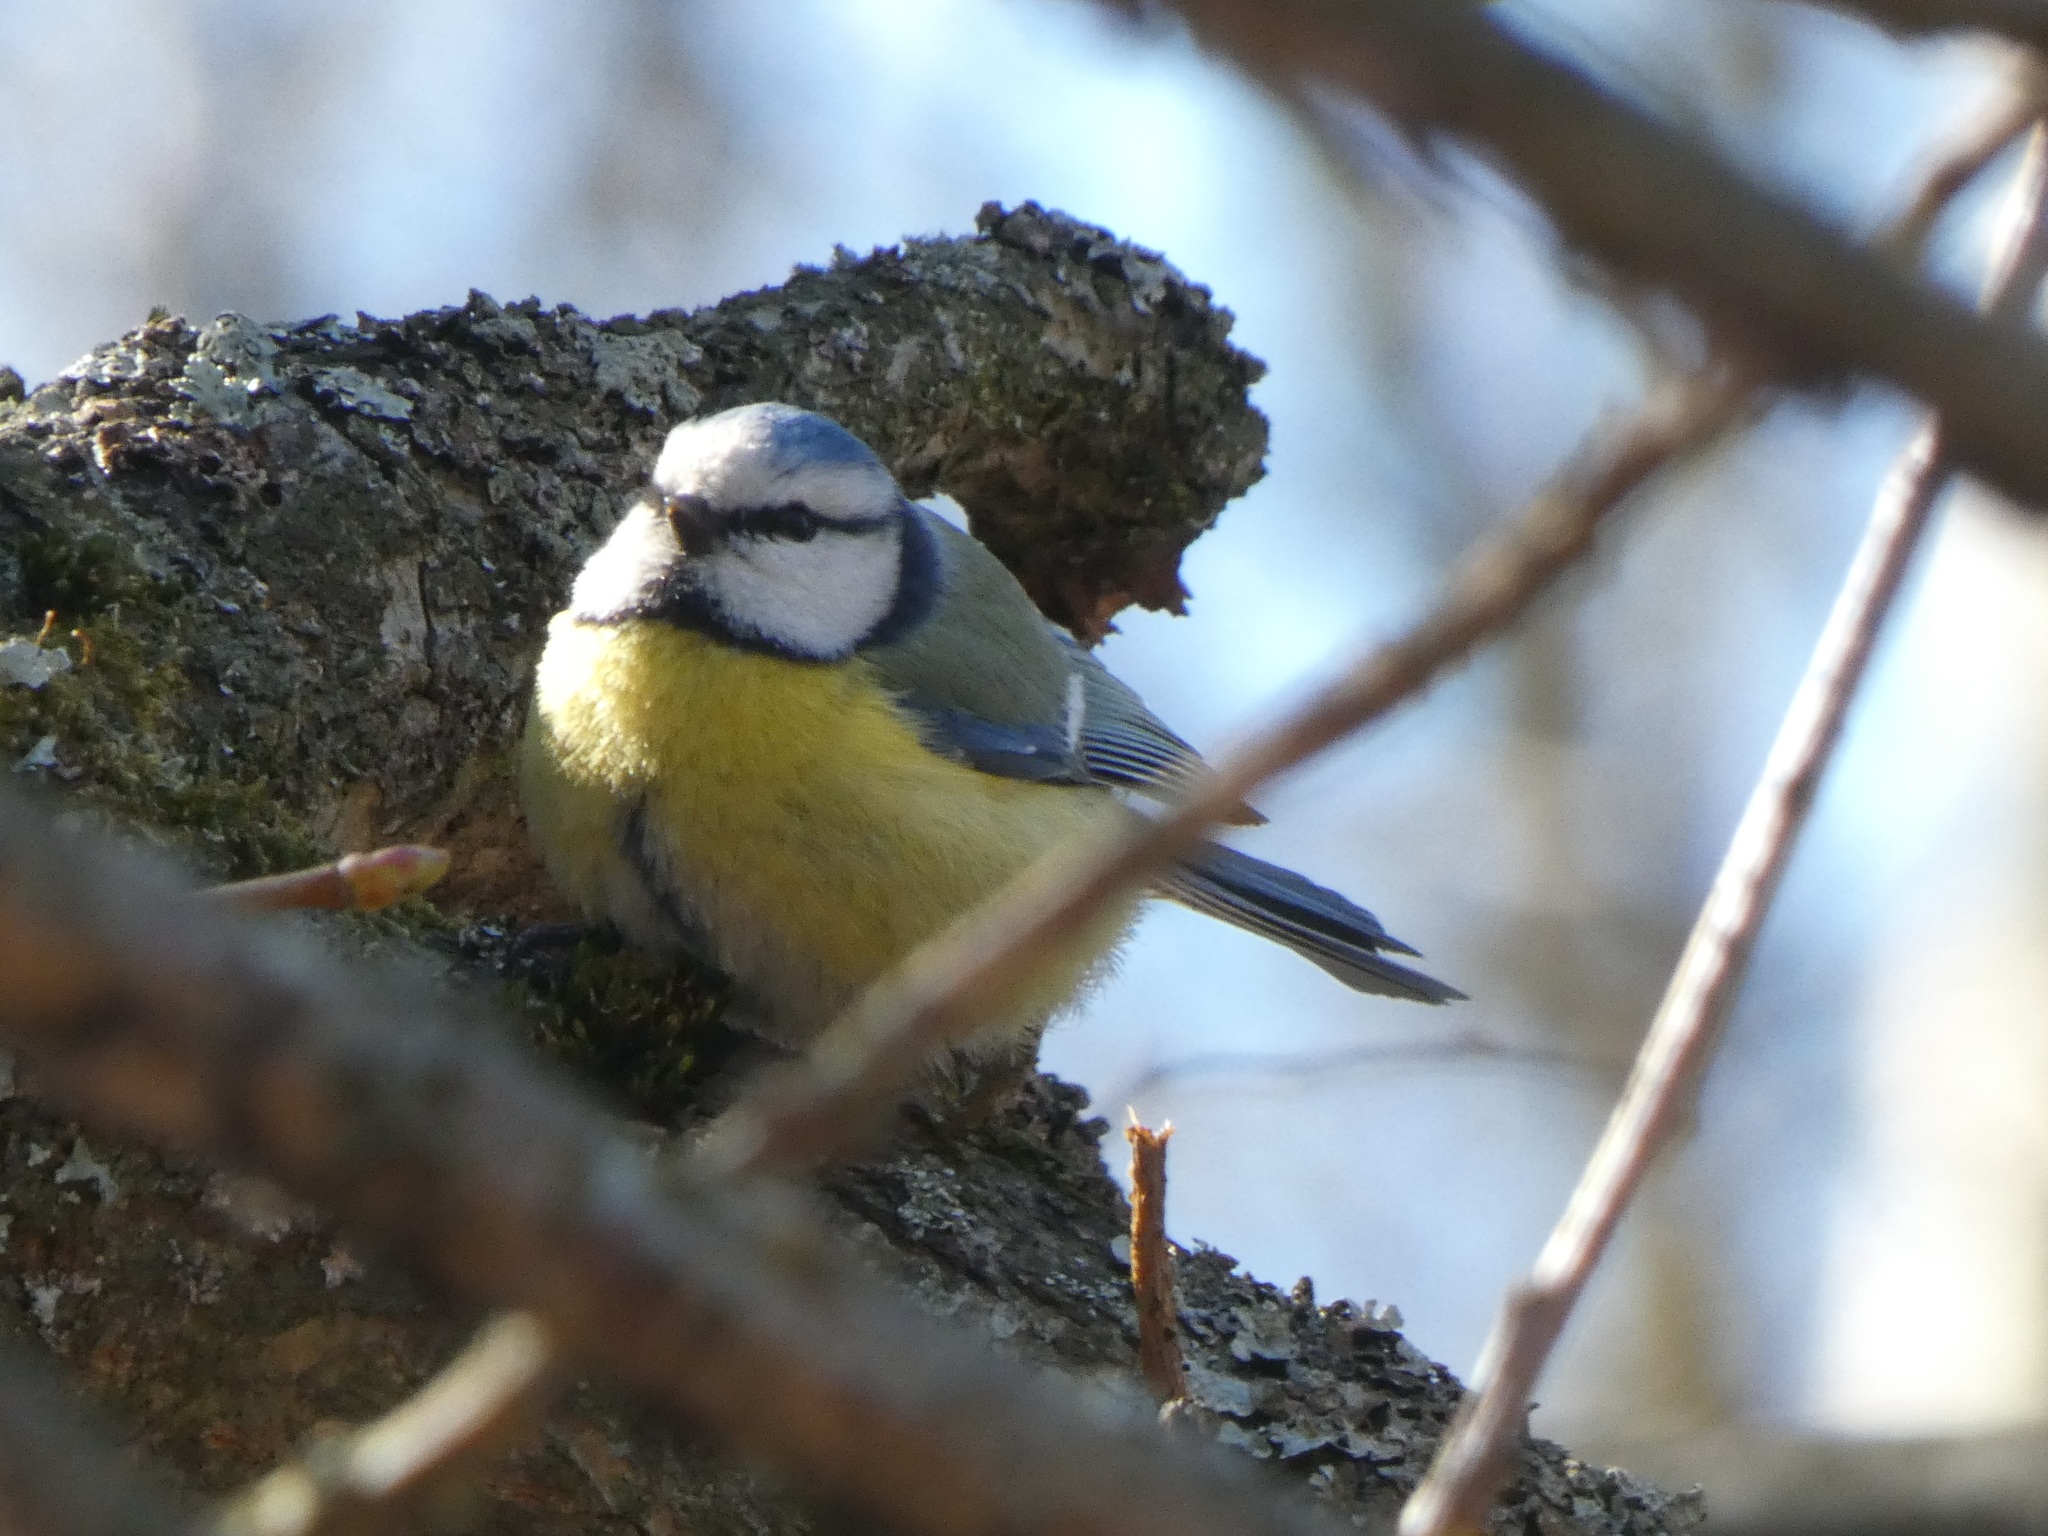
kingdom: Animalia
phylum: Chordata
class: Aves
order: Passeriformes
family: Paridae
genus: Cyanistes
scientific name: Cyanistes caeruleus
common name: Eurasian blue tit
